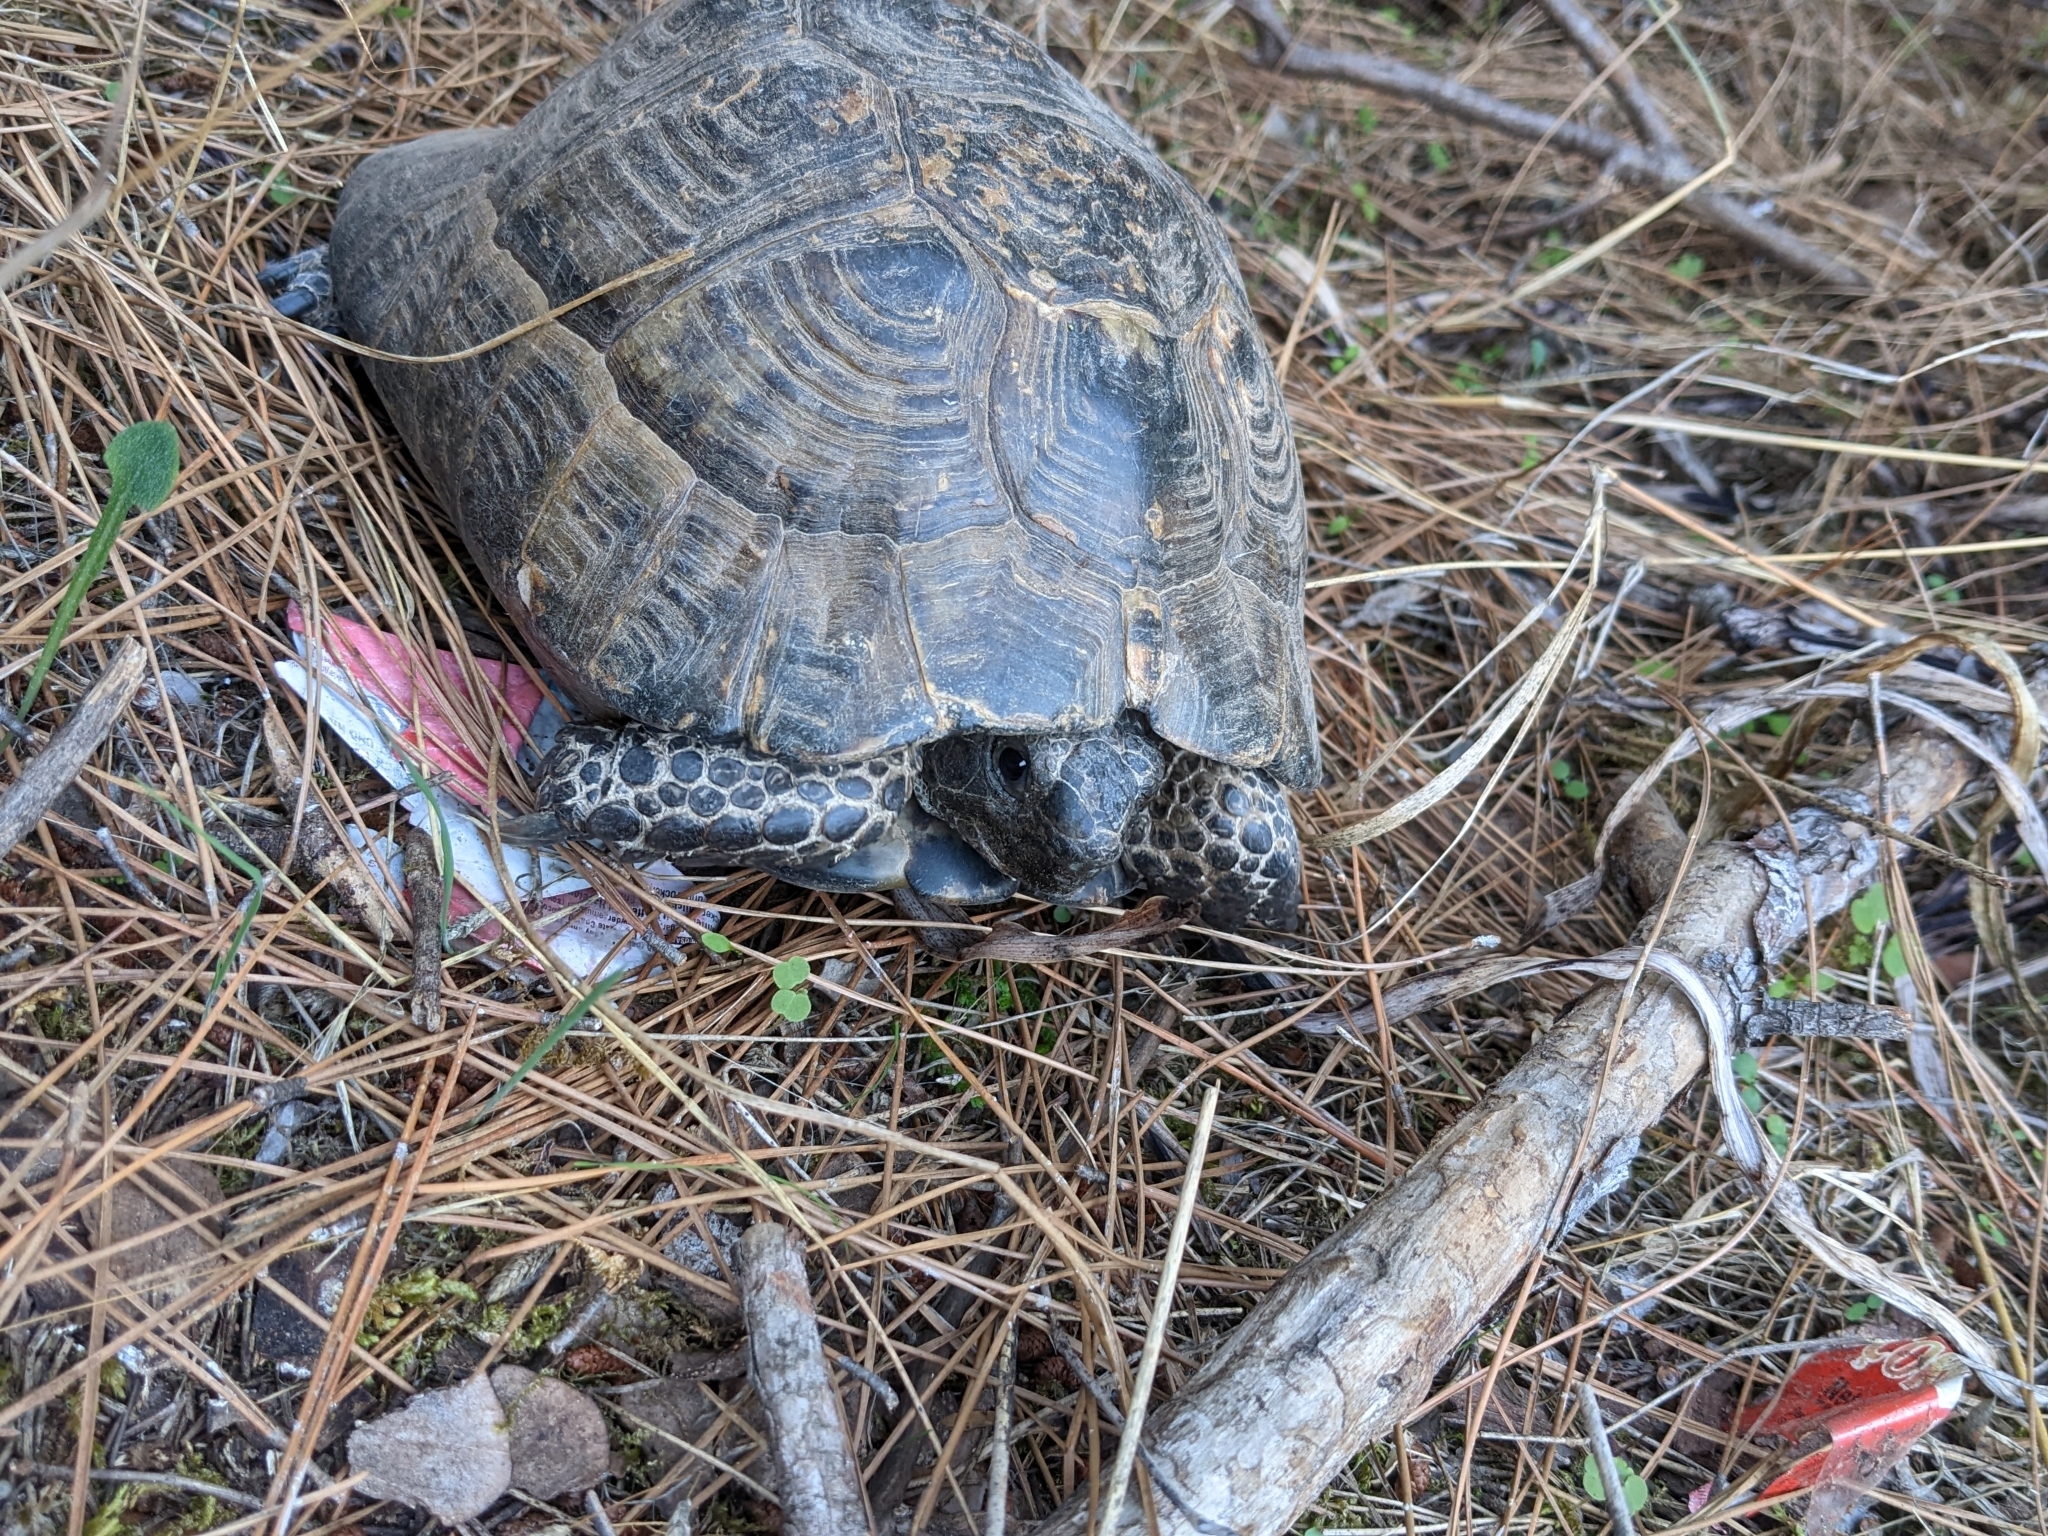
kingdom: Animalia
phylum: Chordata
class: Testudines
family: Testudinidae
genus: Testudo
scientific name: Testudo graeca
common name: Common tortoise
